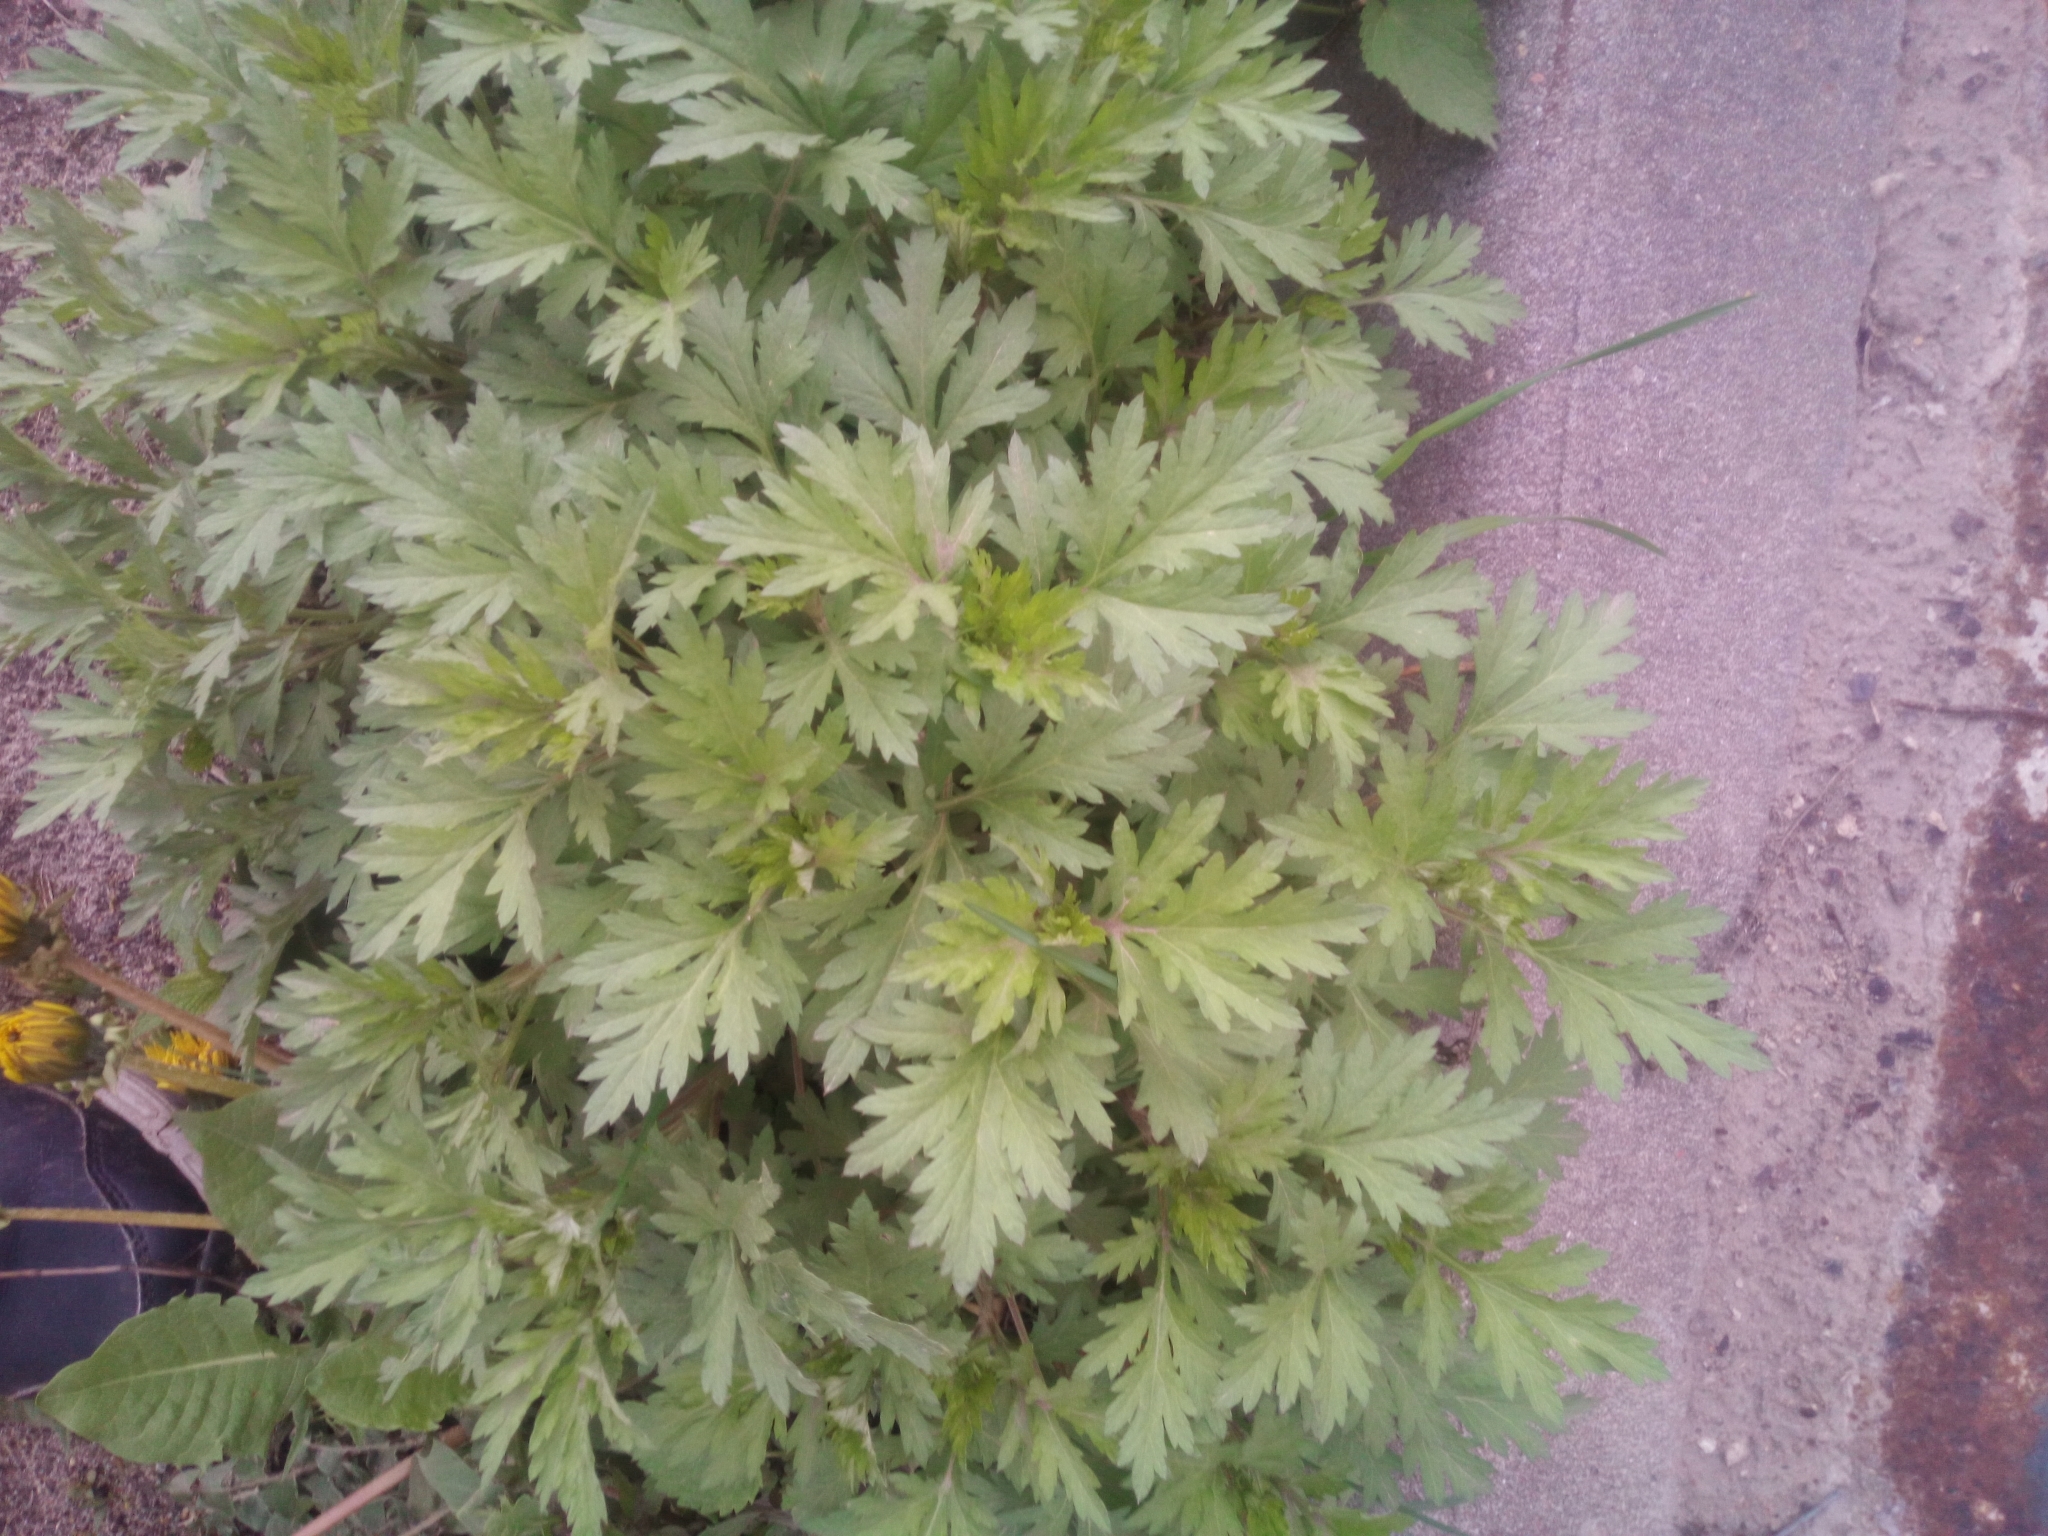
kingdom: Plantae
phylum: Tracheophyta
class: Magnoliopsida
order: Asterales
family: Asteraceae
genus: Artemisia
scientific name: Artemisia vulgaris
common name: Mugwort
